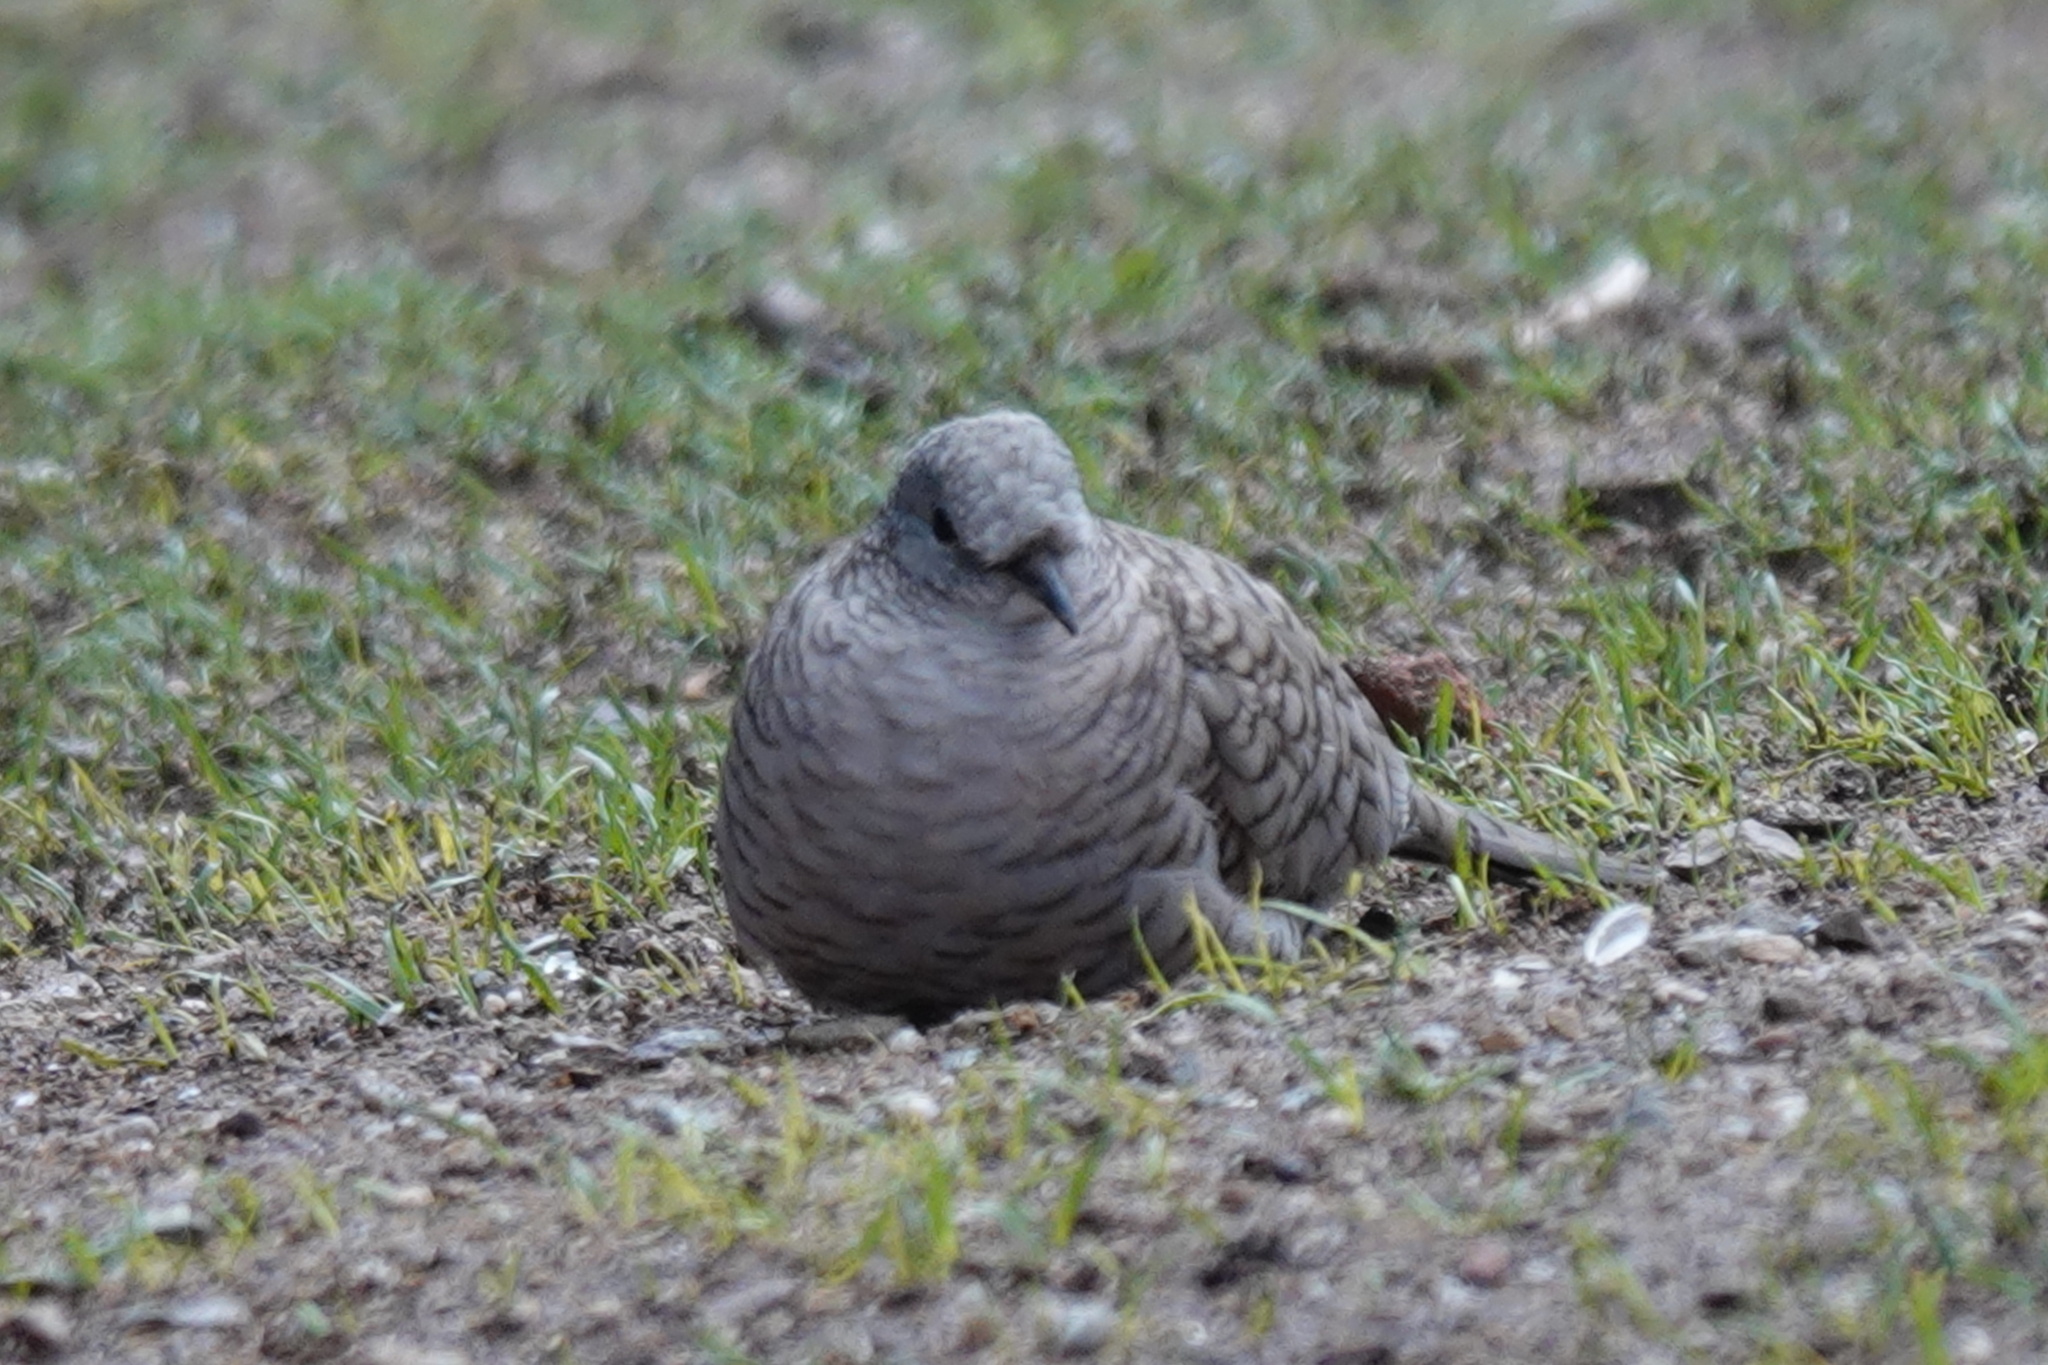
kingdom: Animalia
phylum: Chordata
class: Aves
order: Columbiformes
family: Columbidae
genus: Columbina
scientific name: Columbina inca
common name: Inca dove
